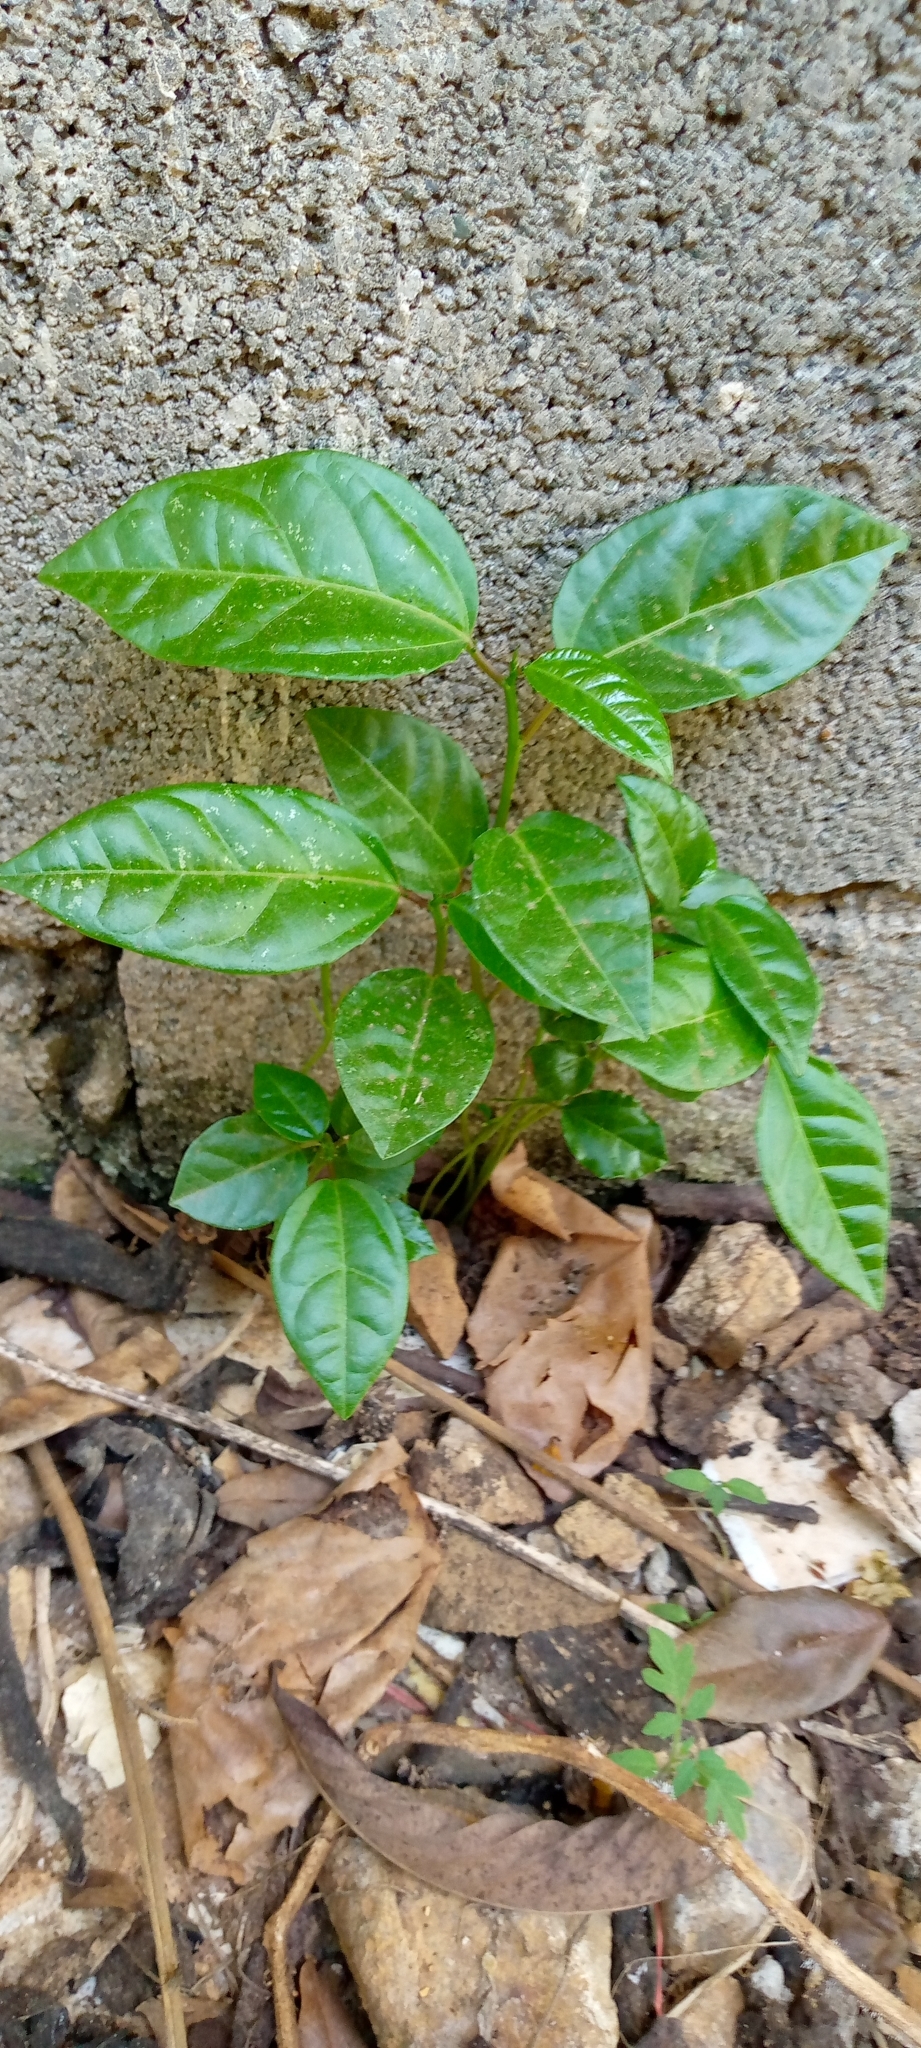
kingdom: Plantae
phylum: Tracheophyta
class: Magnoliopsida
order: Malpighiales
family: Passifloraceae
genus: Passiflora
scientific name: Passiflora edulis
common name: Purple granadilla
